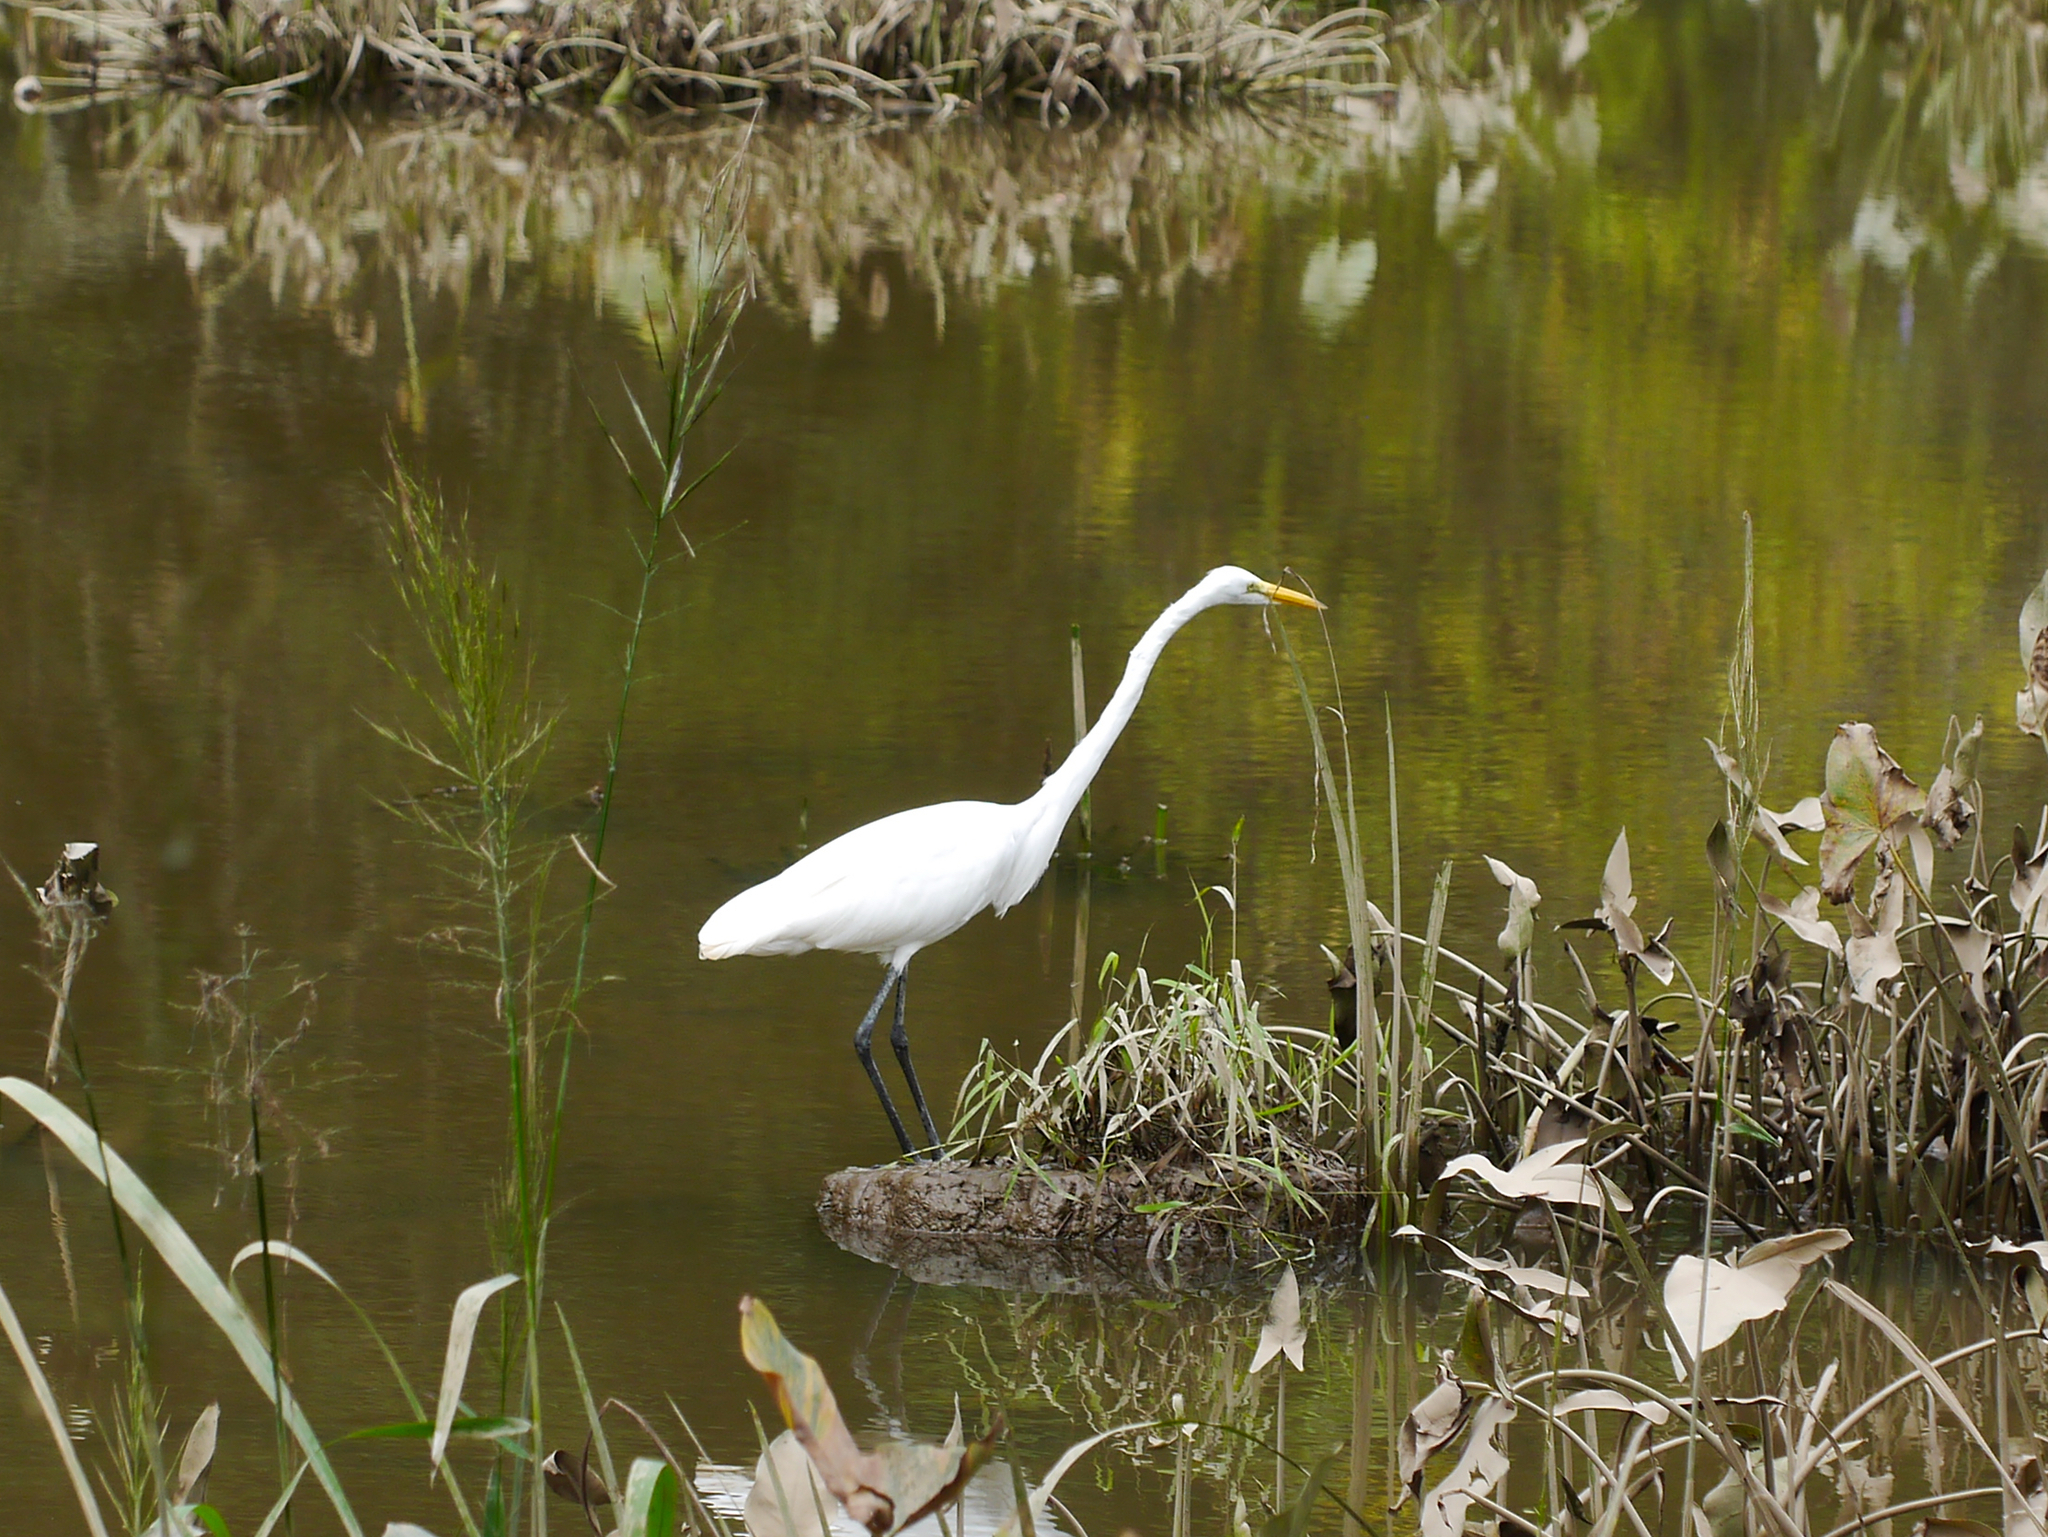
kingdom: Animalia
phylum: Chordata
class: Aves
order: Pelecaniformes
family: Ardeidae
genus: Ardea
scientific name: Ardea alba
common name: Great egret
